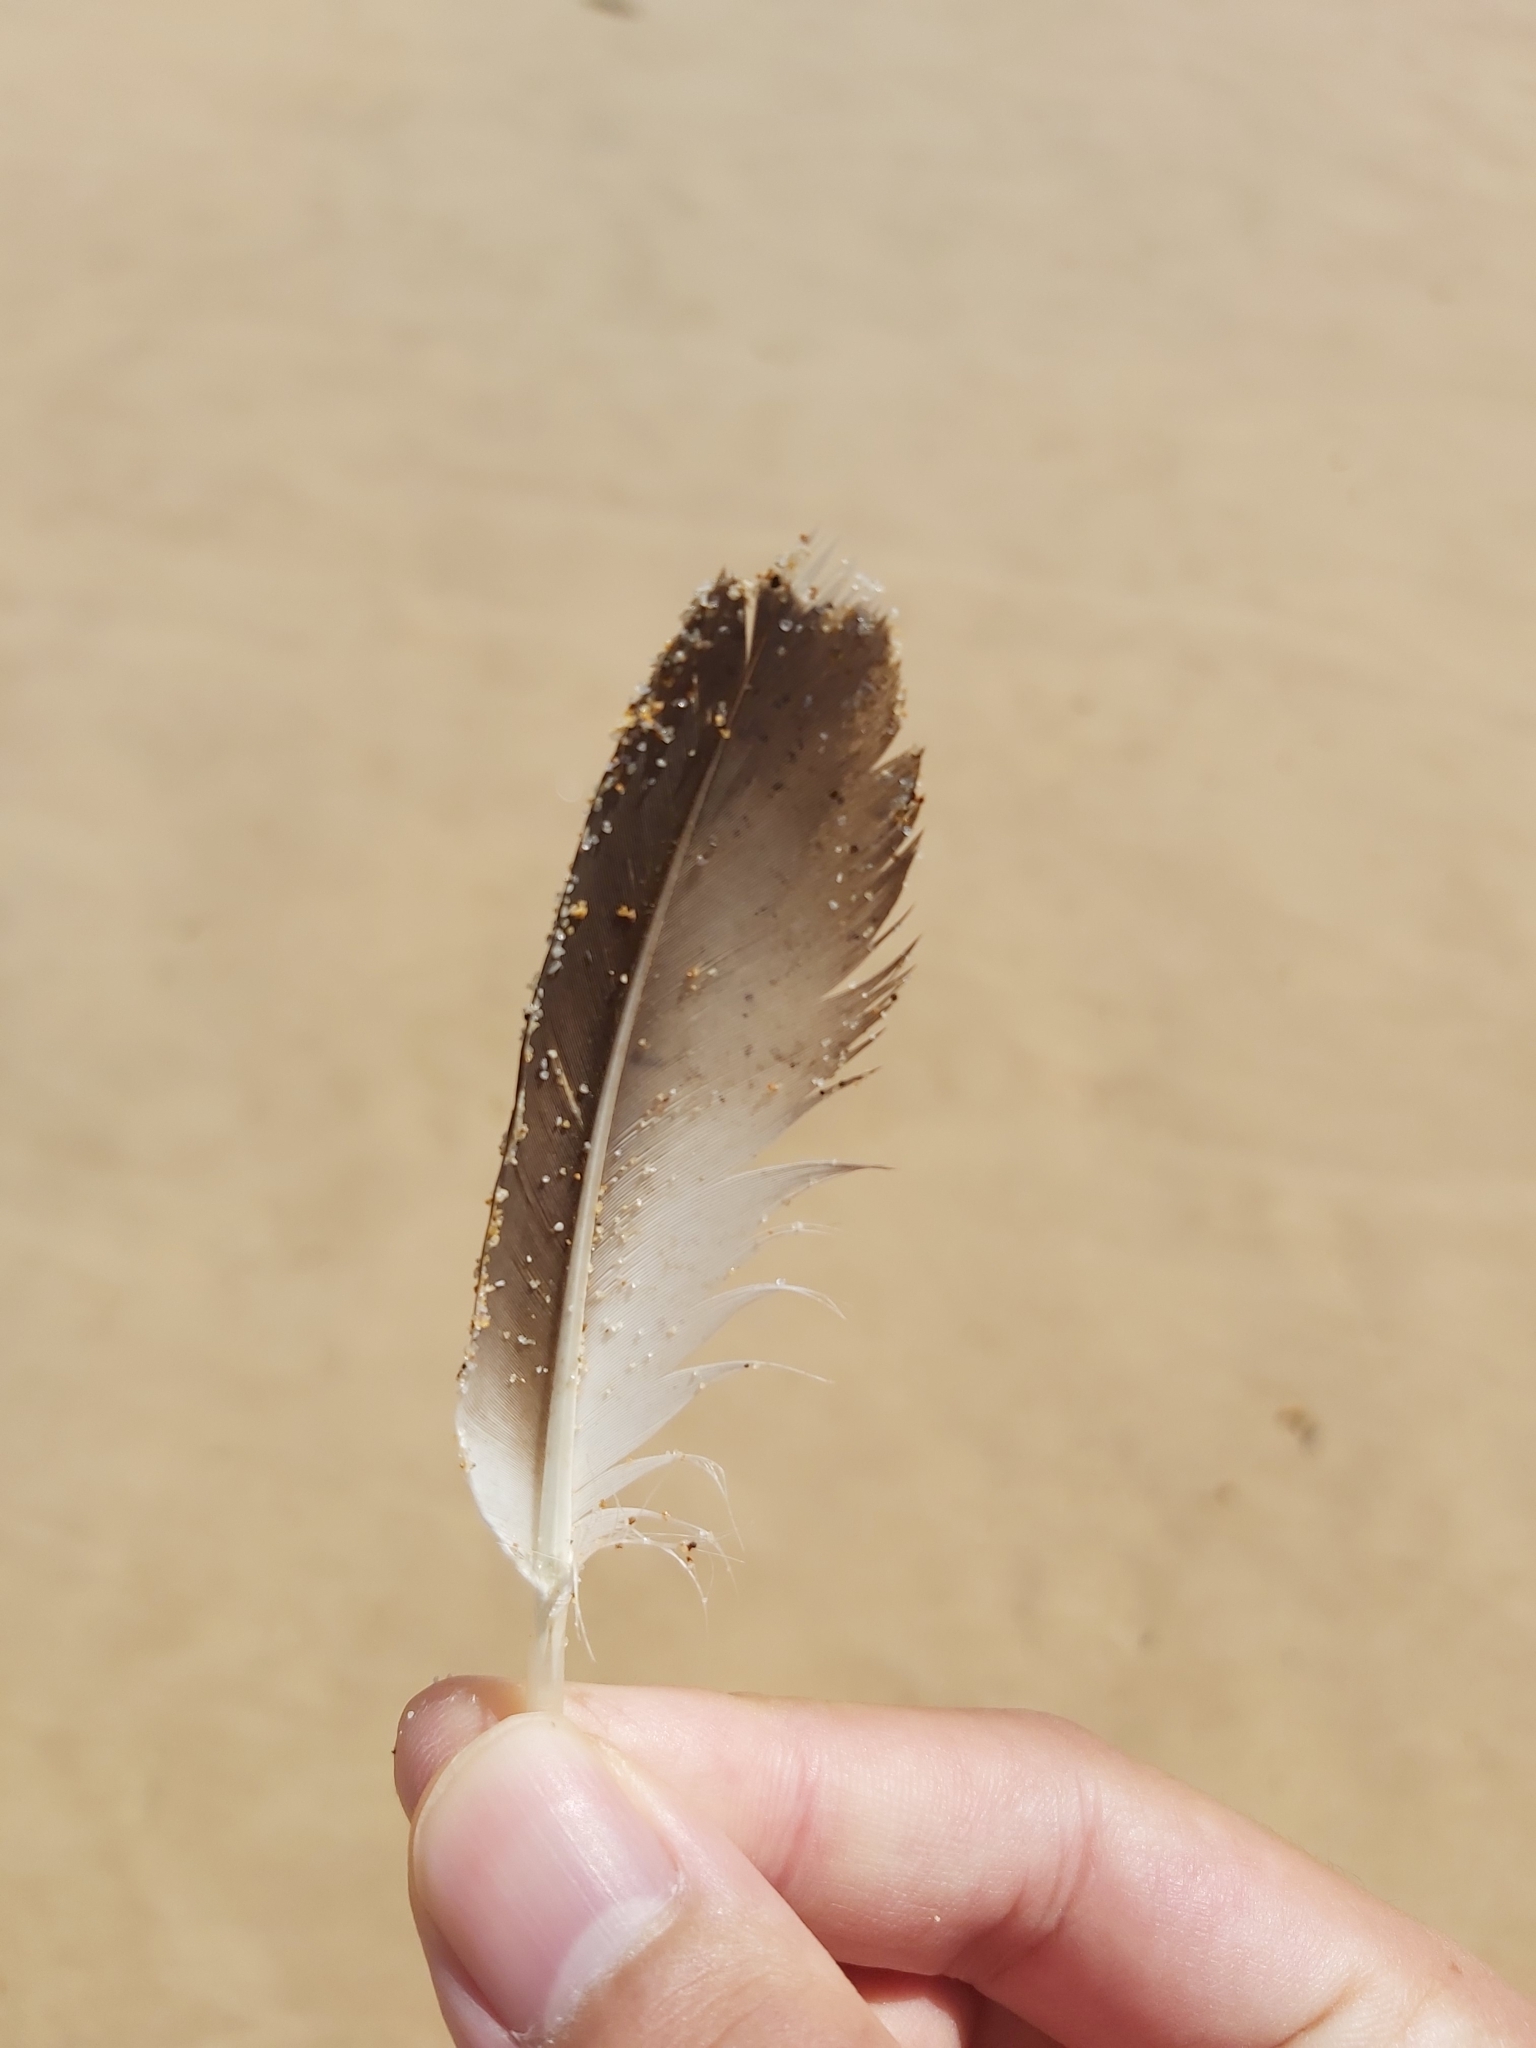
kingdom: Animalia
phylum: Chordata
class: Aves
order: Suliformes
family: Sulidae
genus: Morus
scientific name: Morus serrator
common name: Australasian gannet
